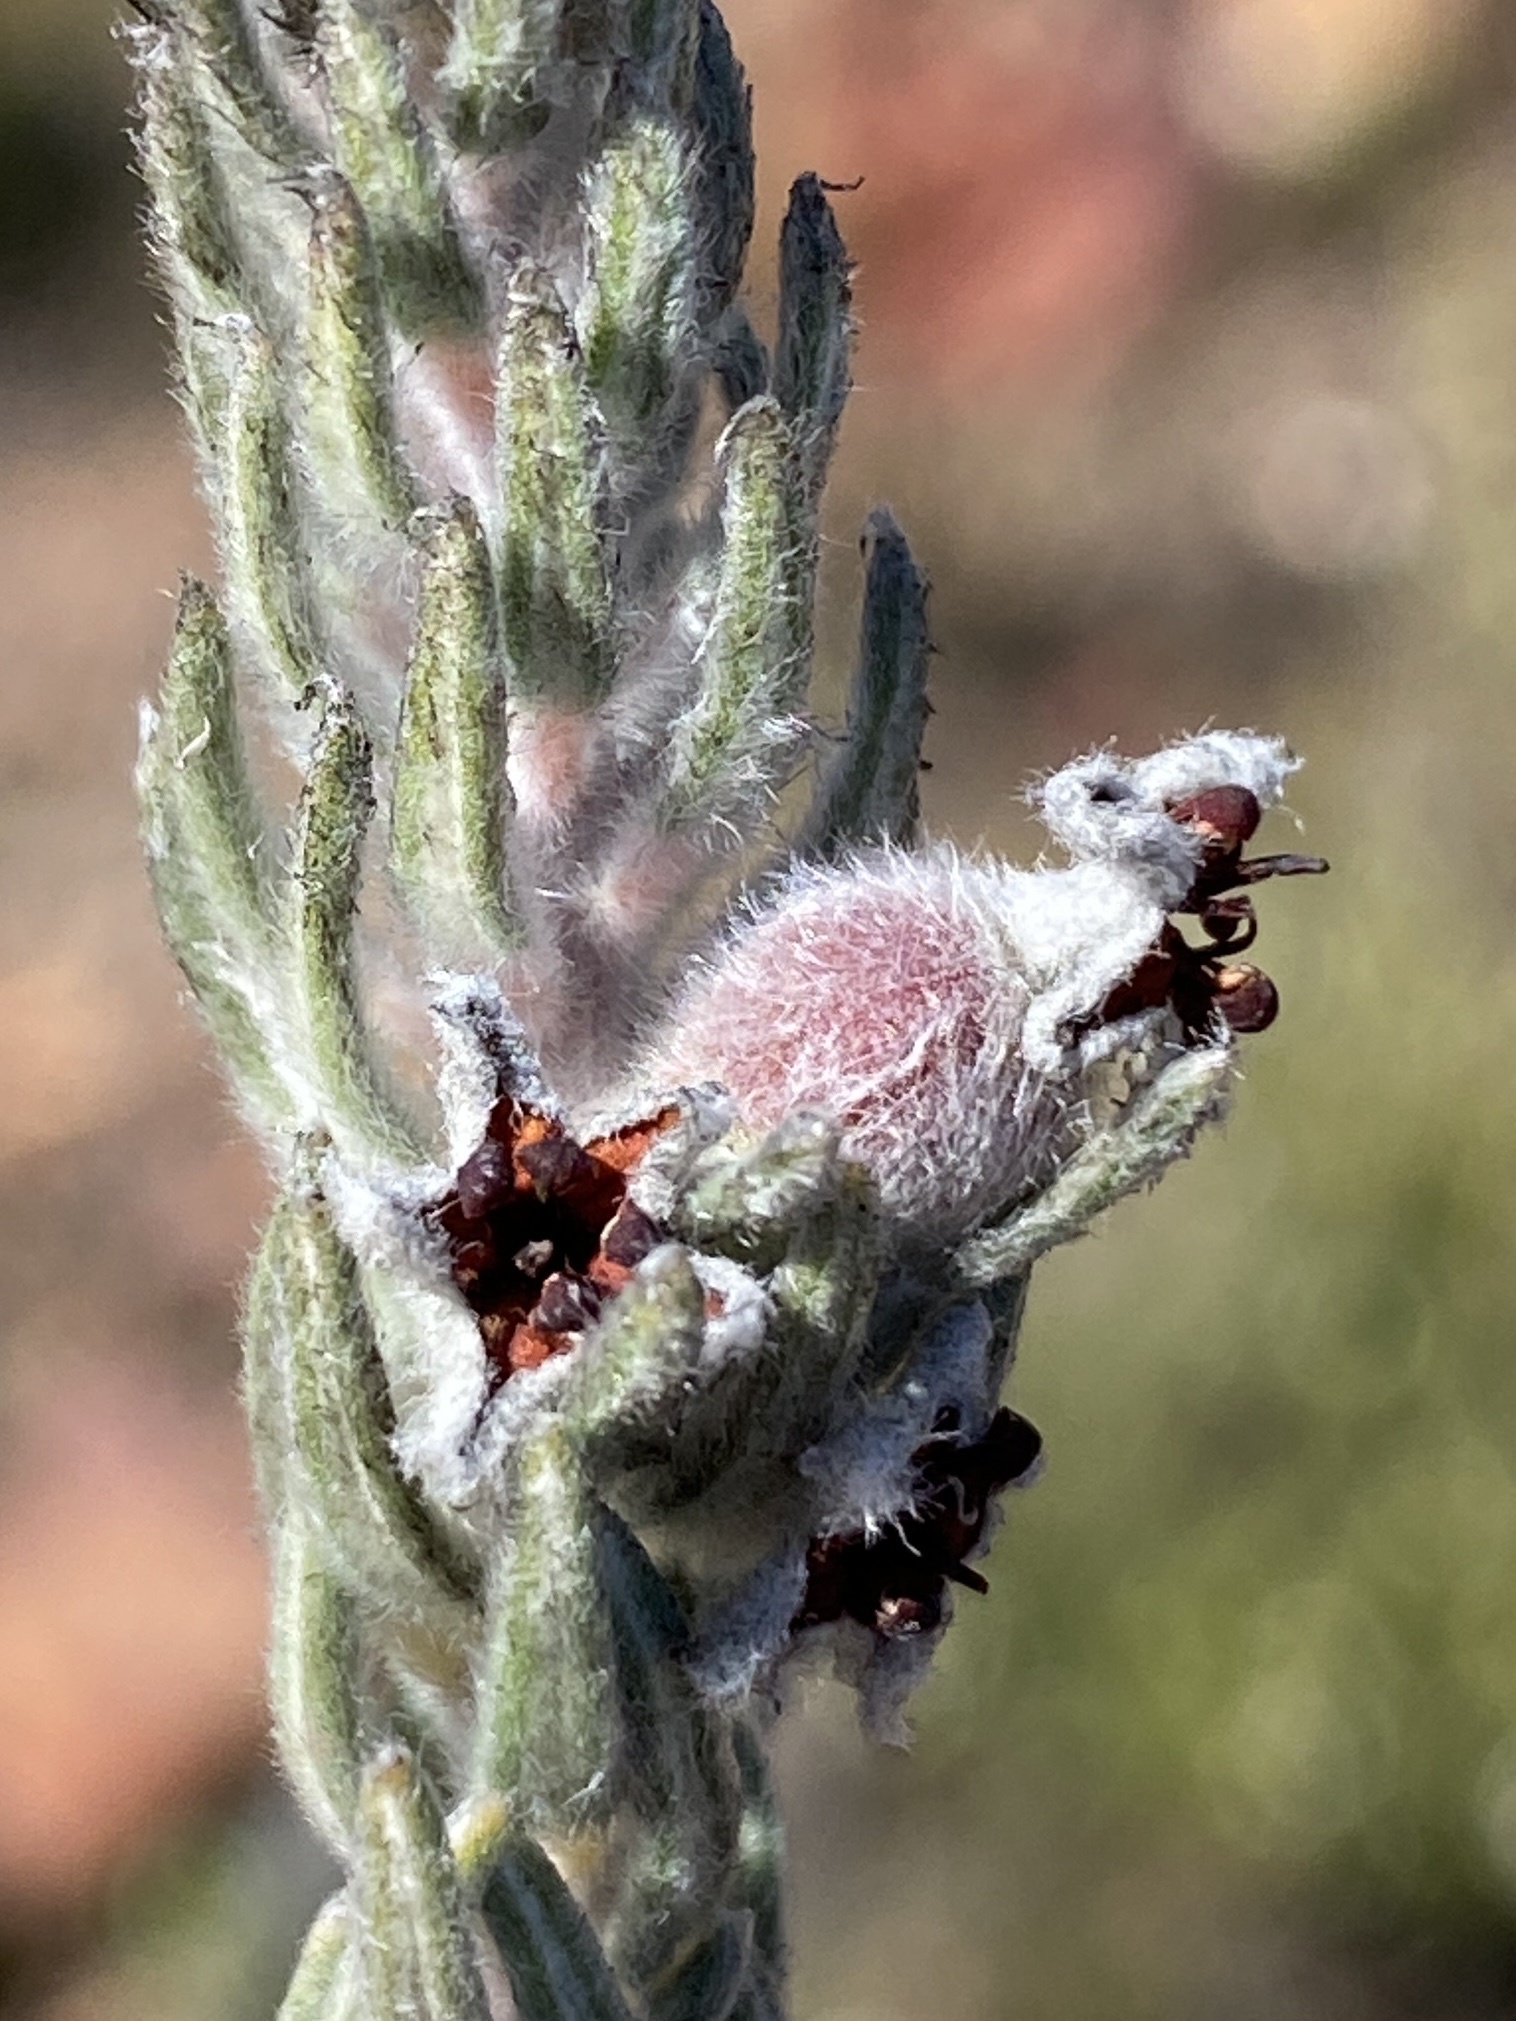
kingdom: Plantae
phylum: Tracheophyta
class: Magnoliopsida
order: Rosales
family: Rhamnaceae
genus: Phylica
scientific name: Phylica willdenowiana
